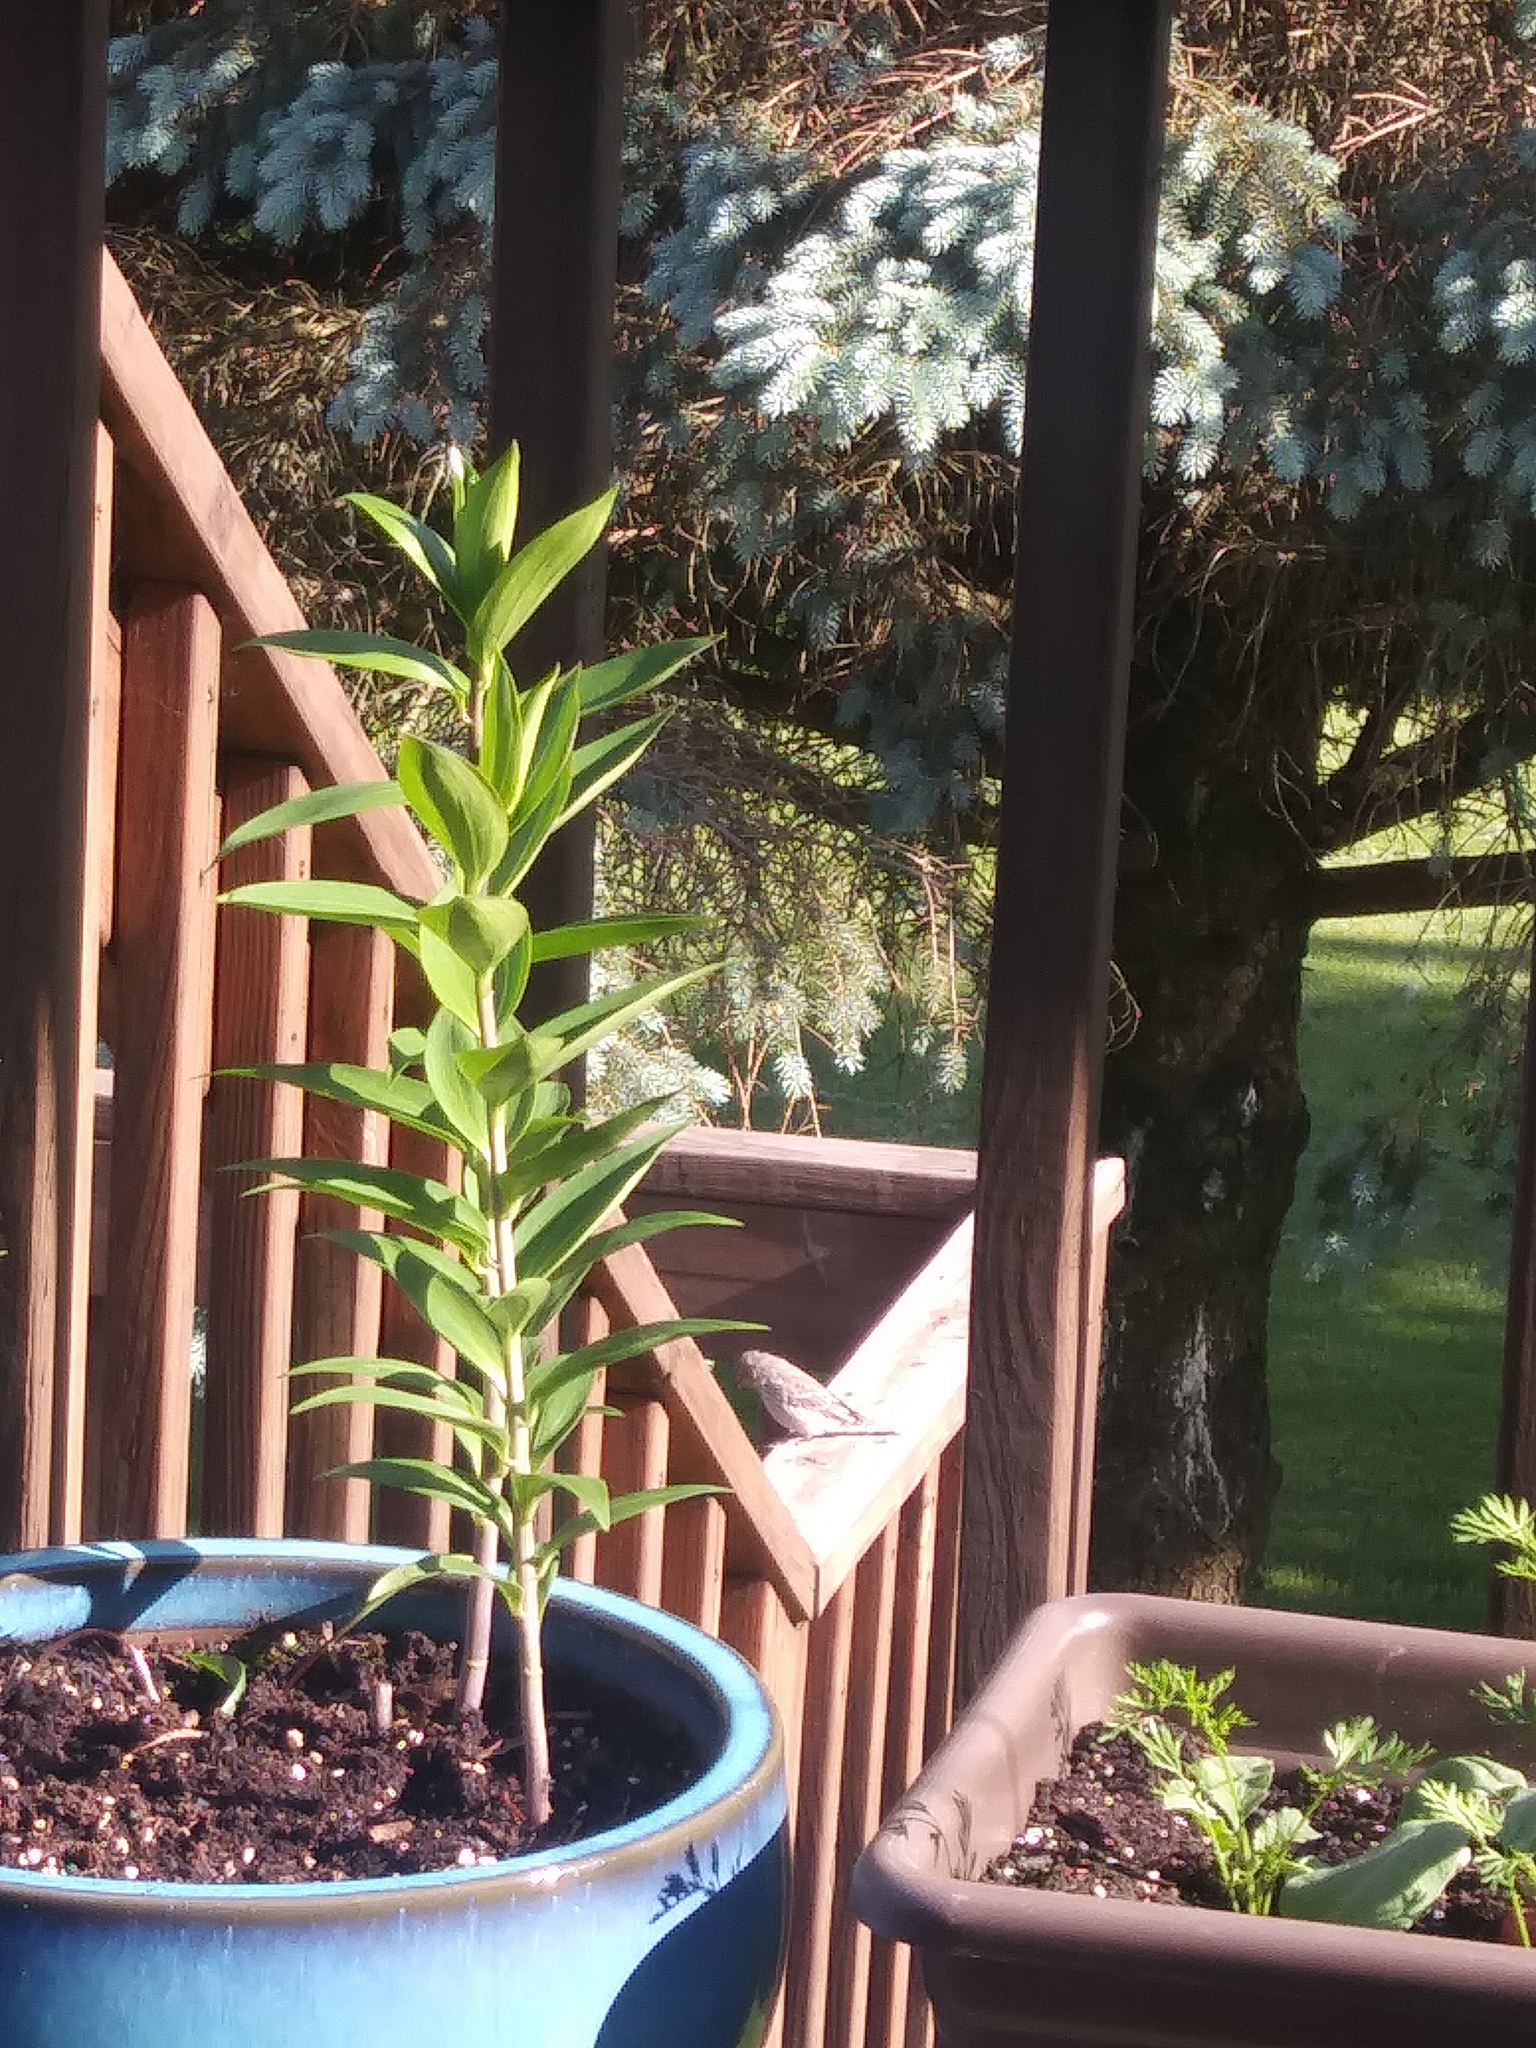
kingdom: Animalia
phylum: Chordata
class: Aves
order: Passeriformes
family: Fringillidae
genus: Haemorhous
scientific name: Haemorhous mexicanus
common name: House finch
